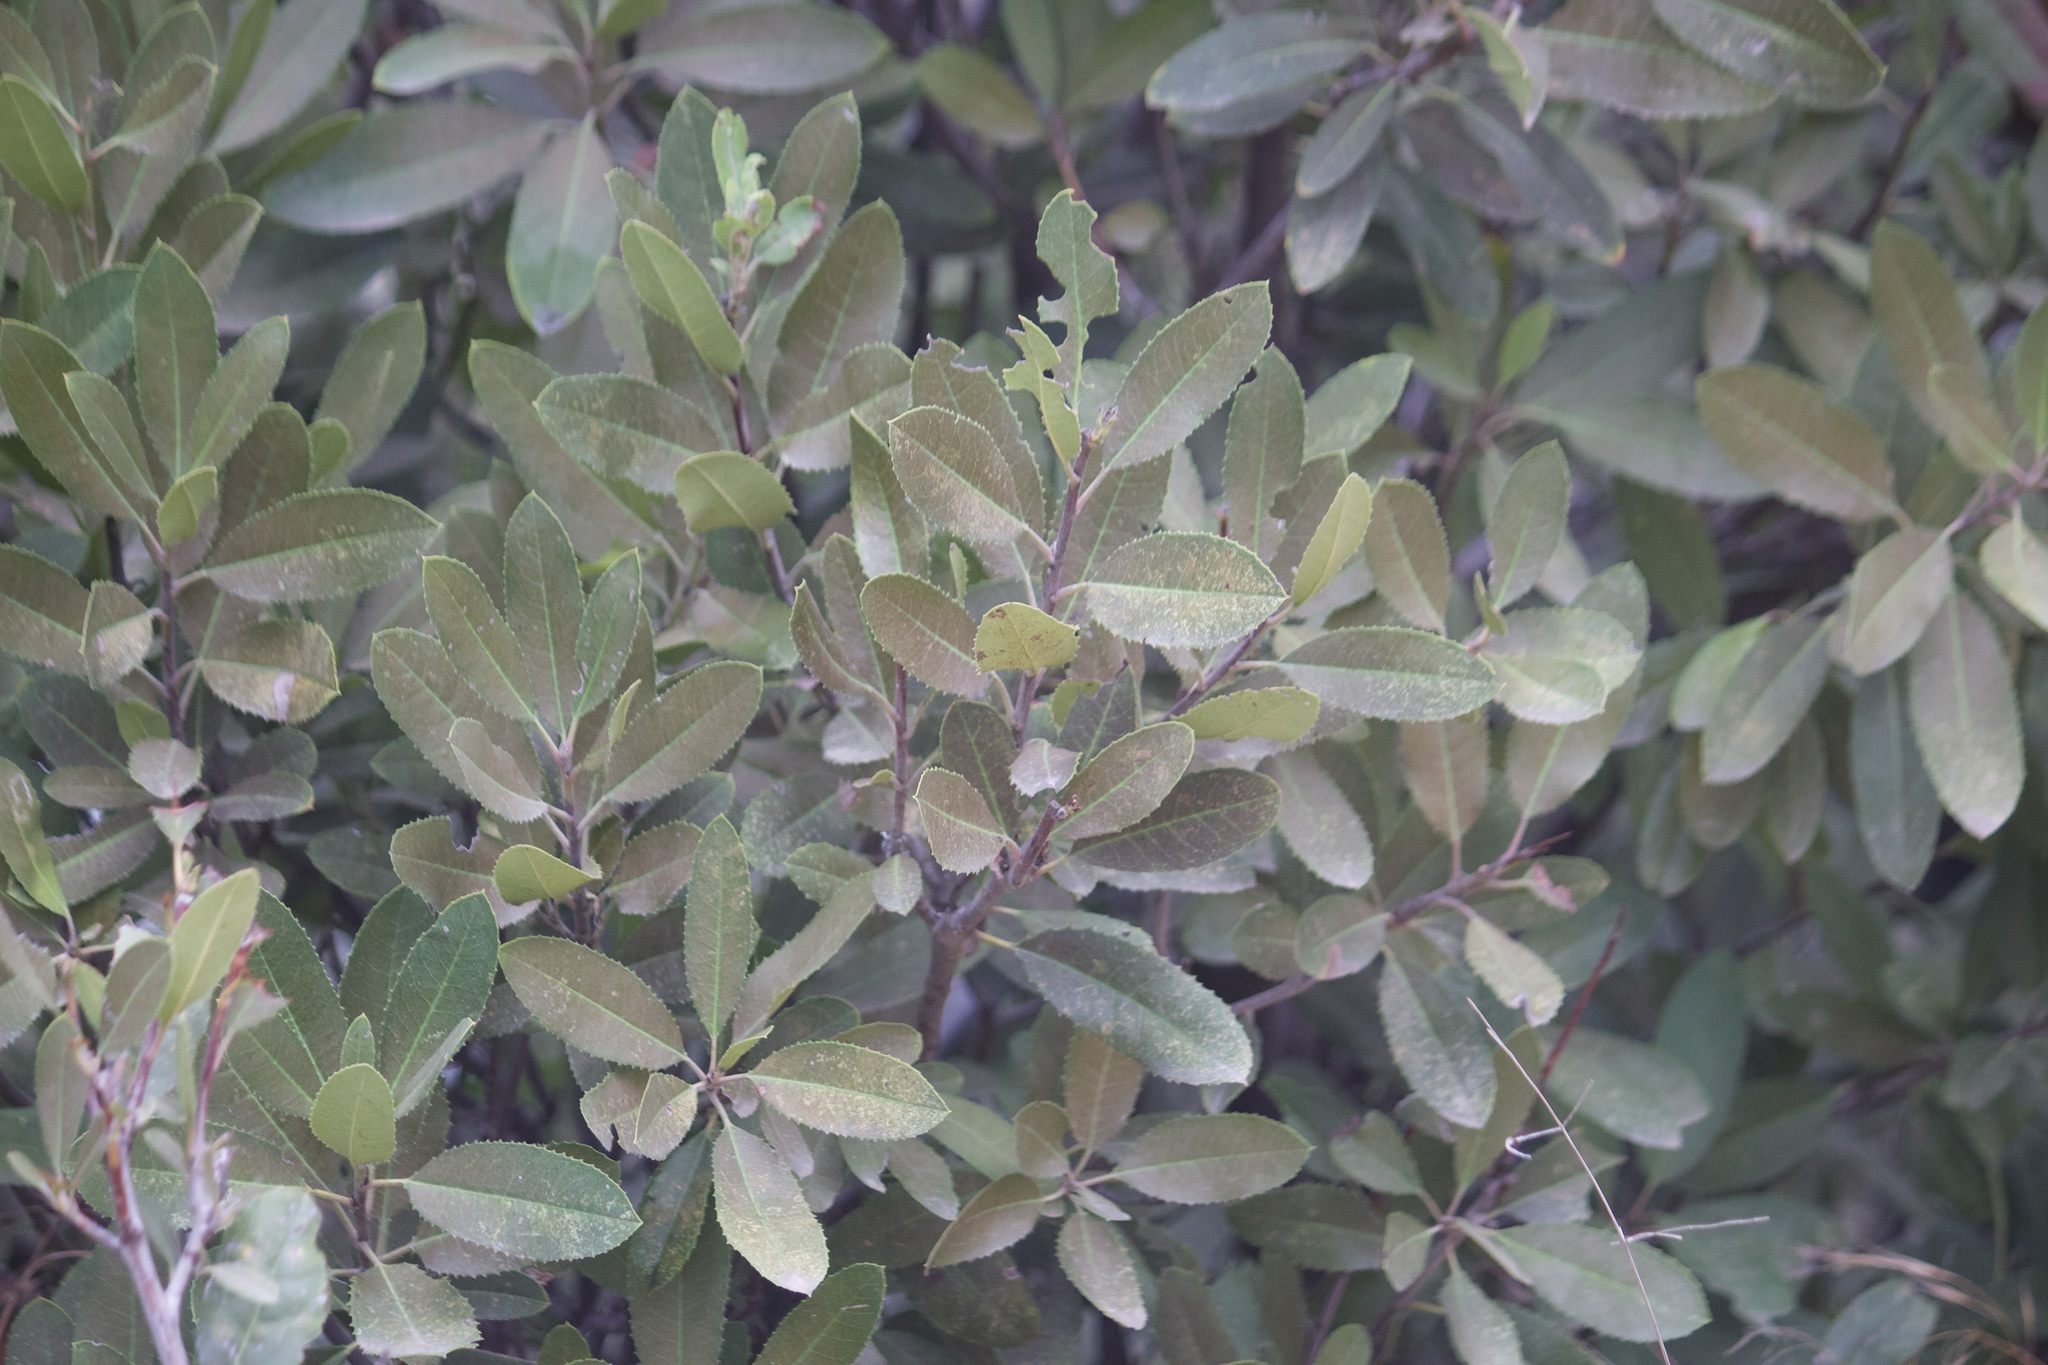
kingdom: Plantae
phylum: Tracheophyta
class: Magnoliopsida
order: Rosales
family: Rosaceae
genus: Heteromeles
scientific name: Heteromeles arbutifolia
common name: California-holly
